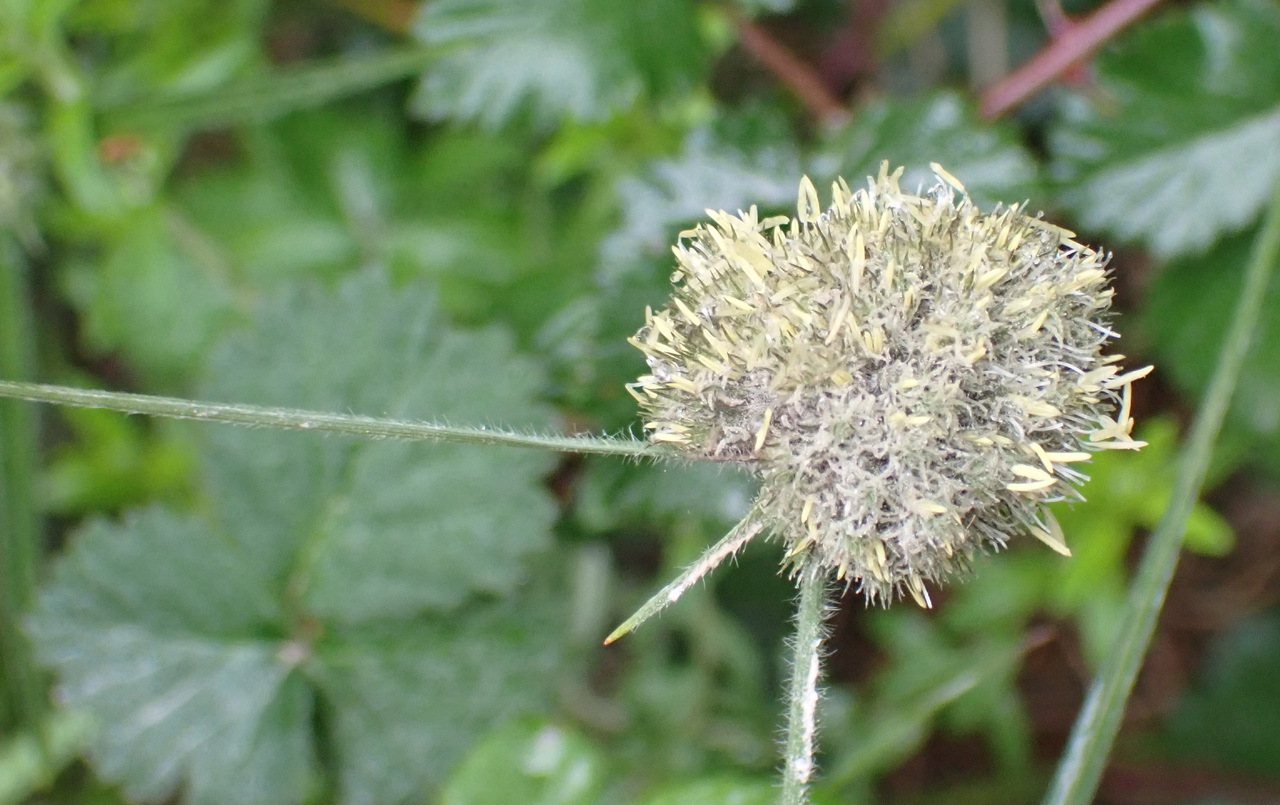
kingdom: Plantae
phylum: Tracheophyta
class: Liliopsida
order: Poales
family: Cyperaceae
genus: Fuirena
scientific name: Fuirena hirsuta
